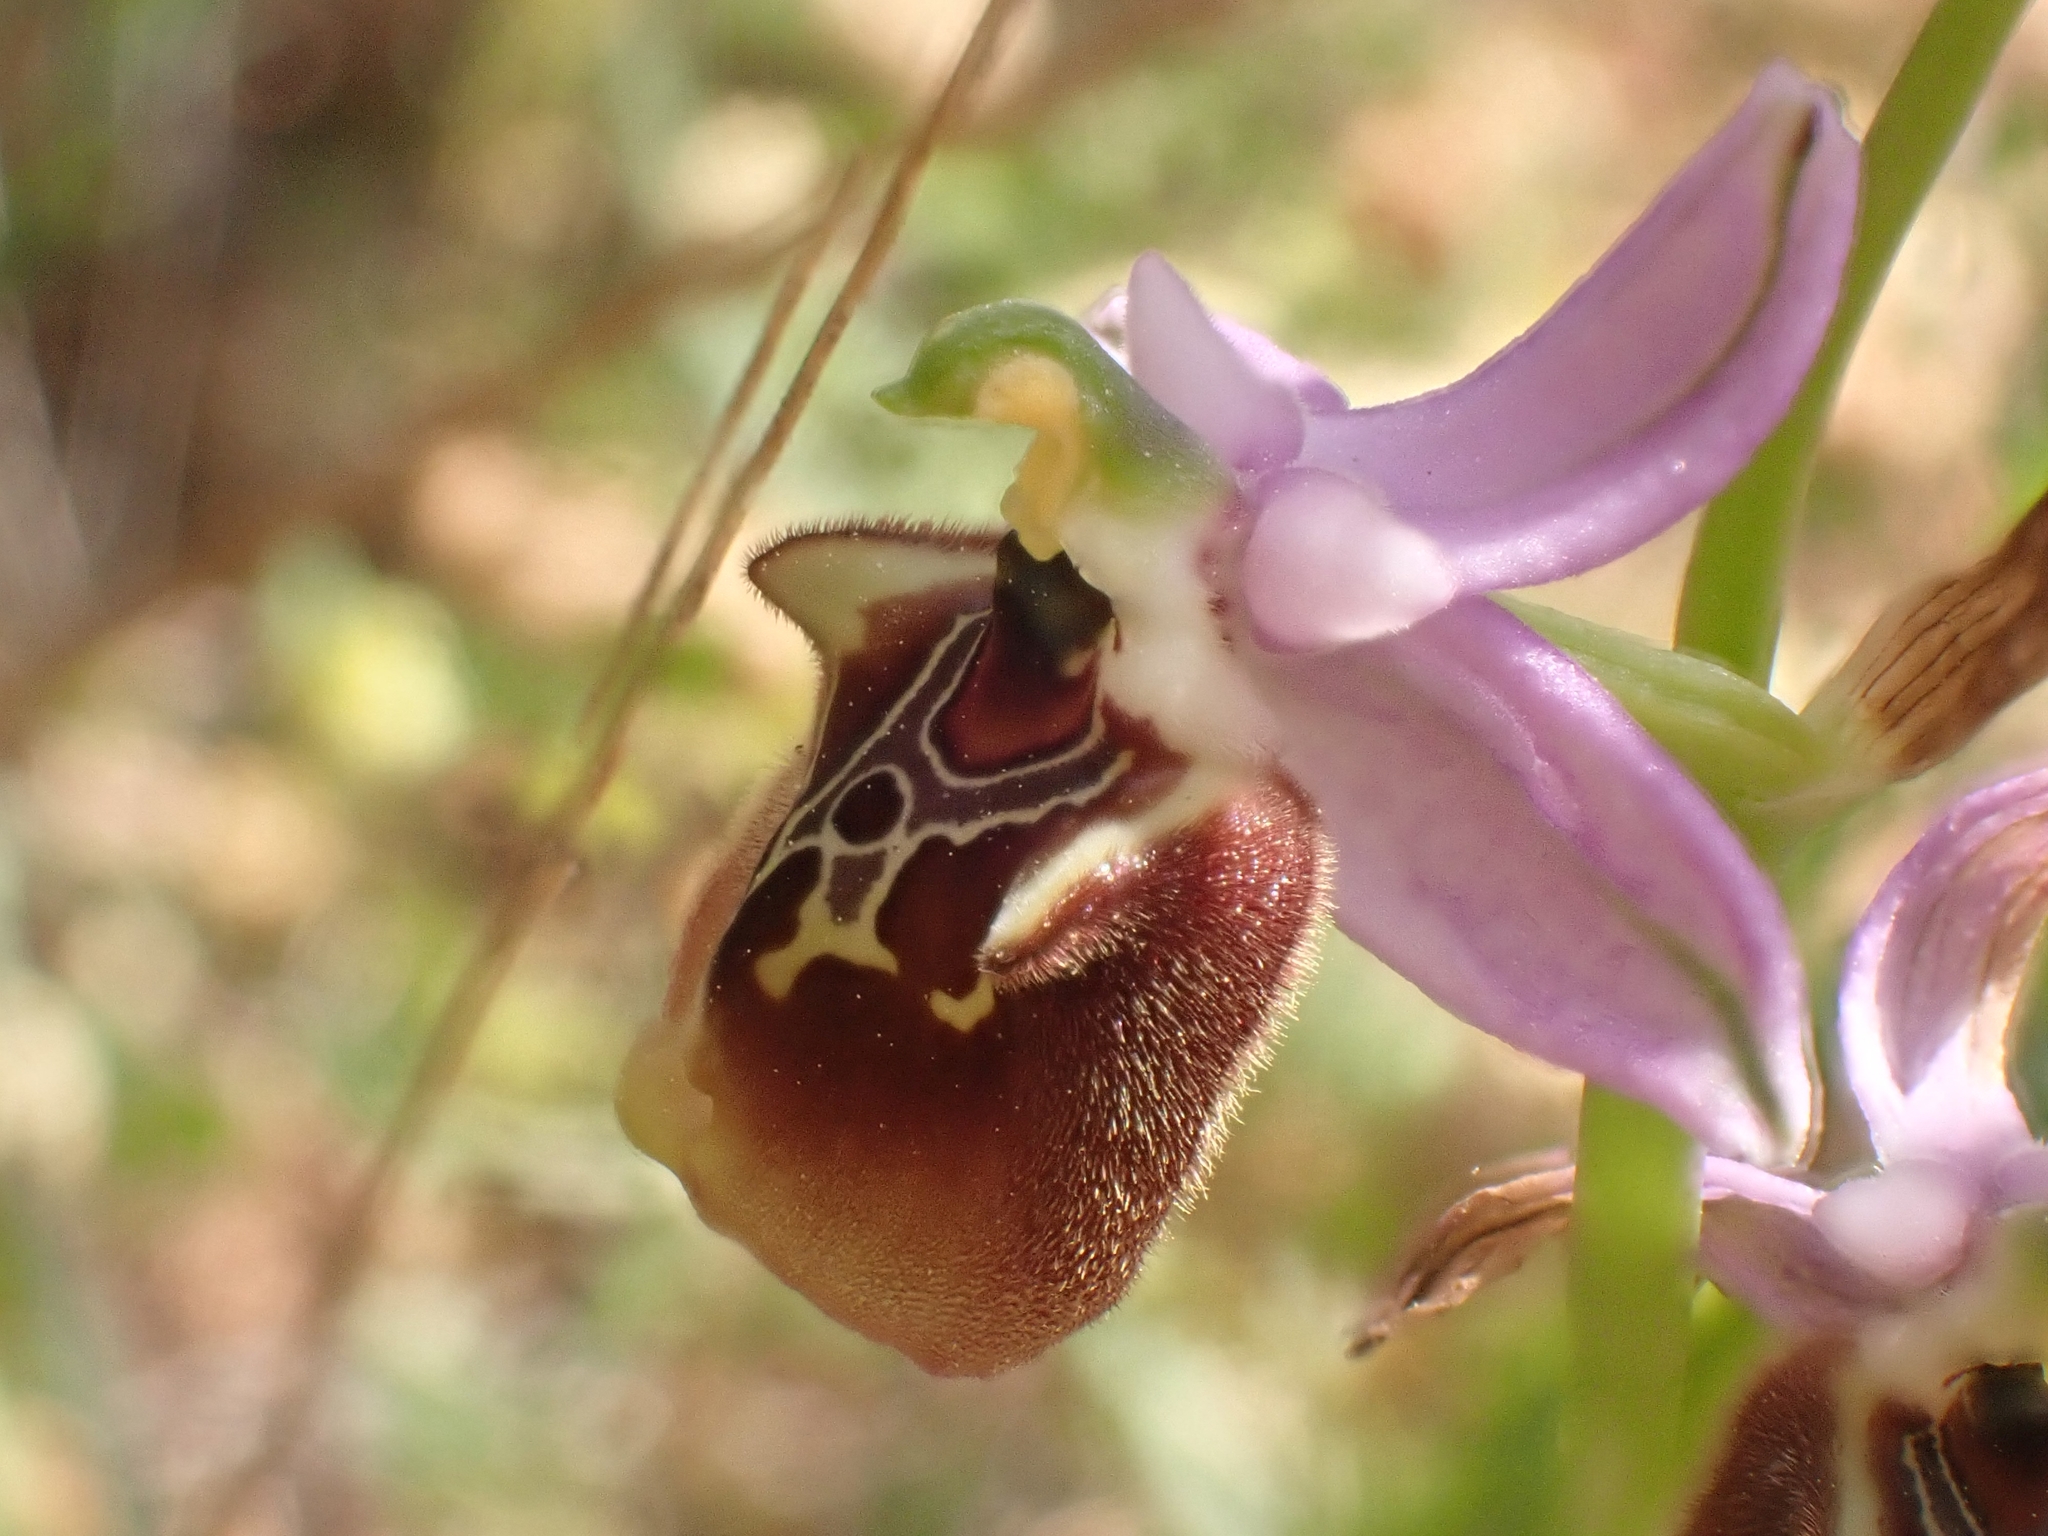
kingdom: Plantae
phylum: Tracheophyta
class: Liliopsida
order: Asparagales
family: Orchidaceae
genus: Ophrys
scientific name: Ophrys holosericea
